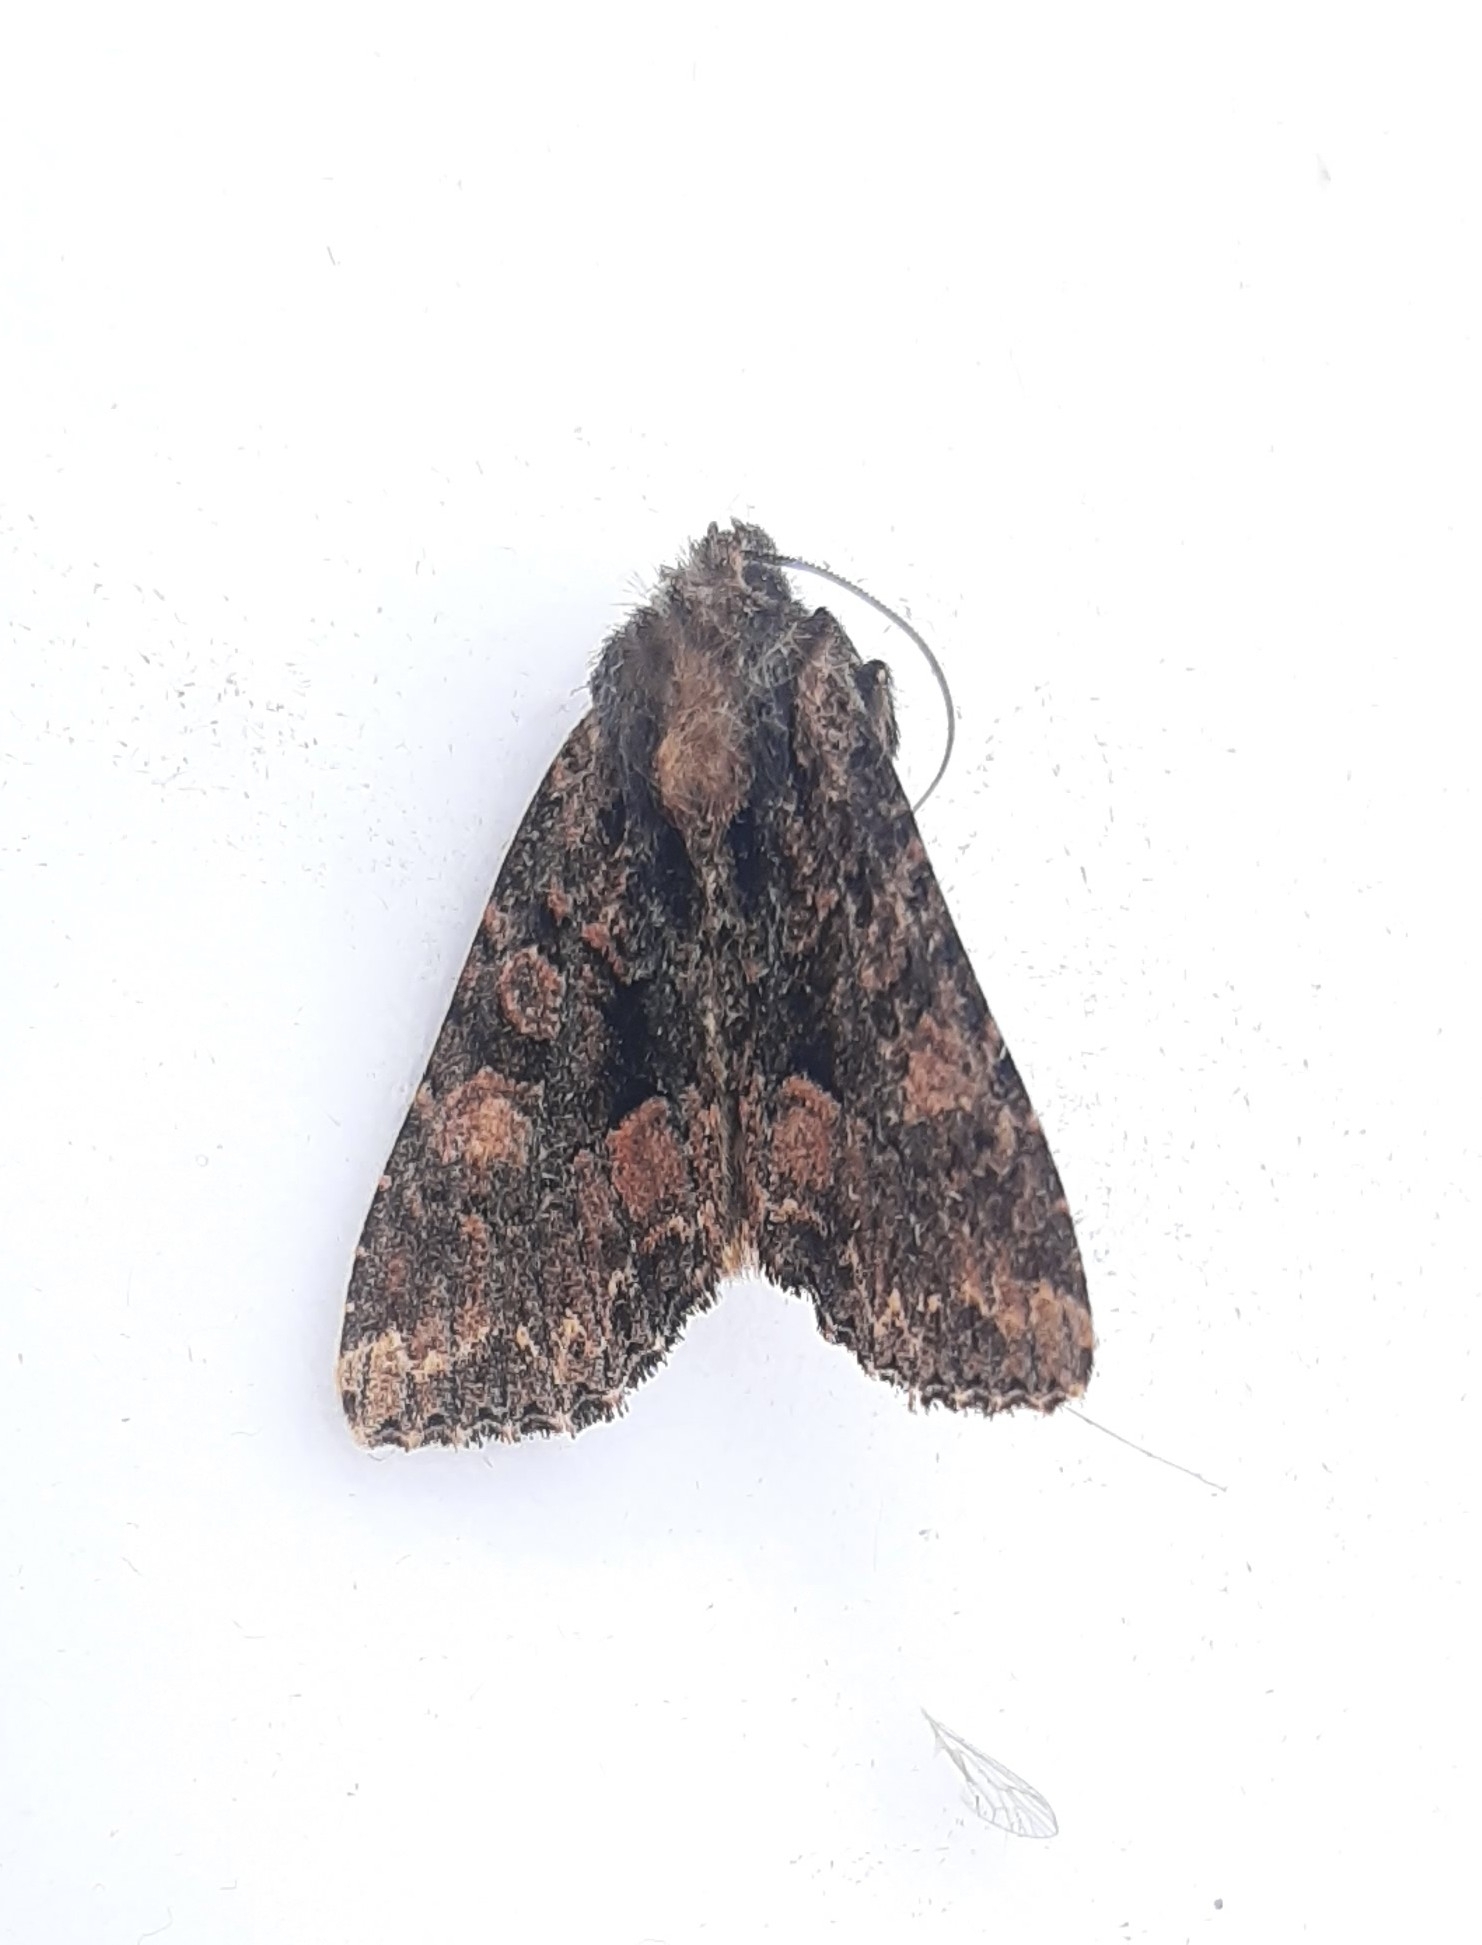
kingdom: Animalia
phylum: Arthropoda
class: Insecta
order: Lepidoptera
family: Noctuidae
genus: Mniotype
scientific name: Mniotype satura
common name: Beautiful arches
